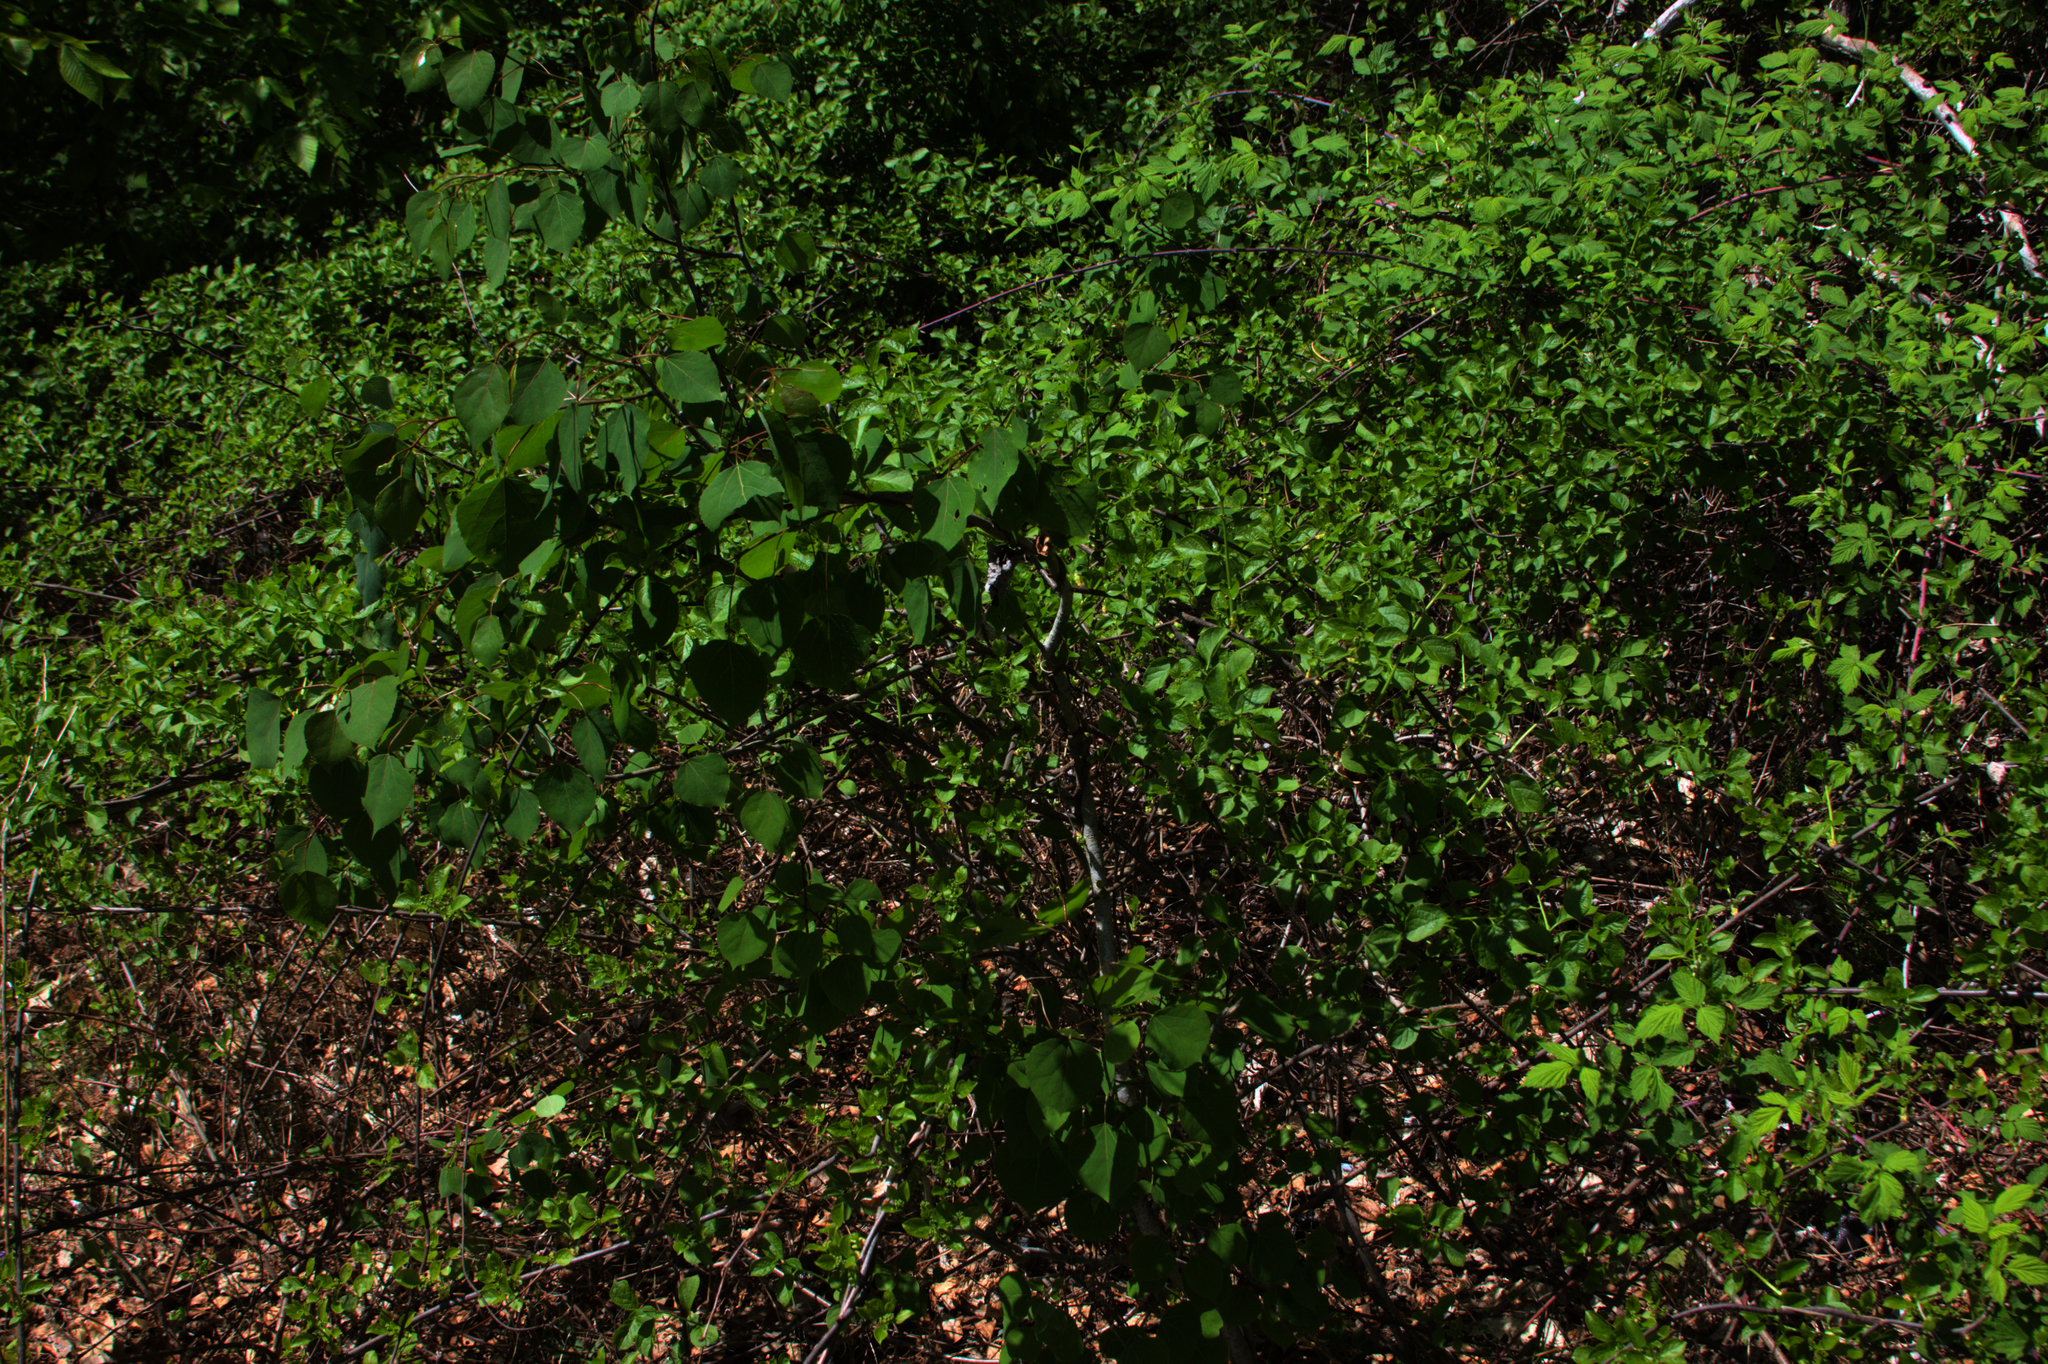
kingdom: Plantae
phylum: Tracheophyta
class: Magnoliopsida
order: Malpighiales
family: Salicaceae
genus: Populus
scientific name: Populus tremuloides
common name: Quaking aspen
